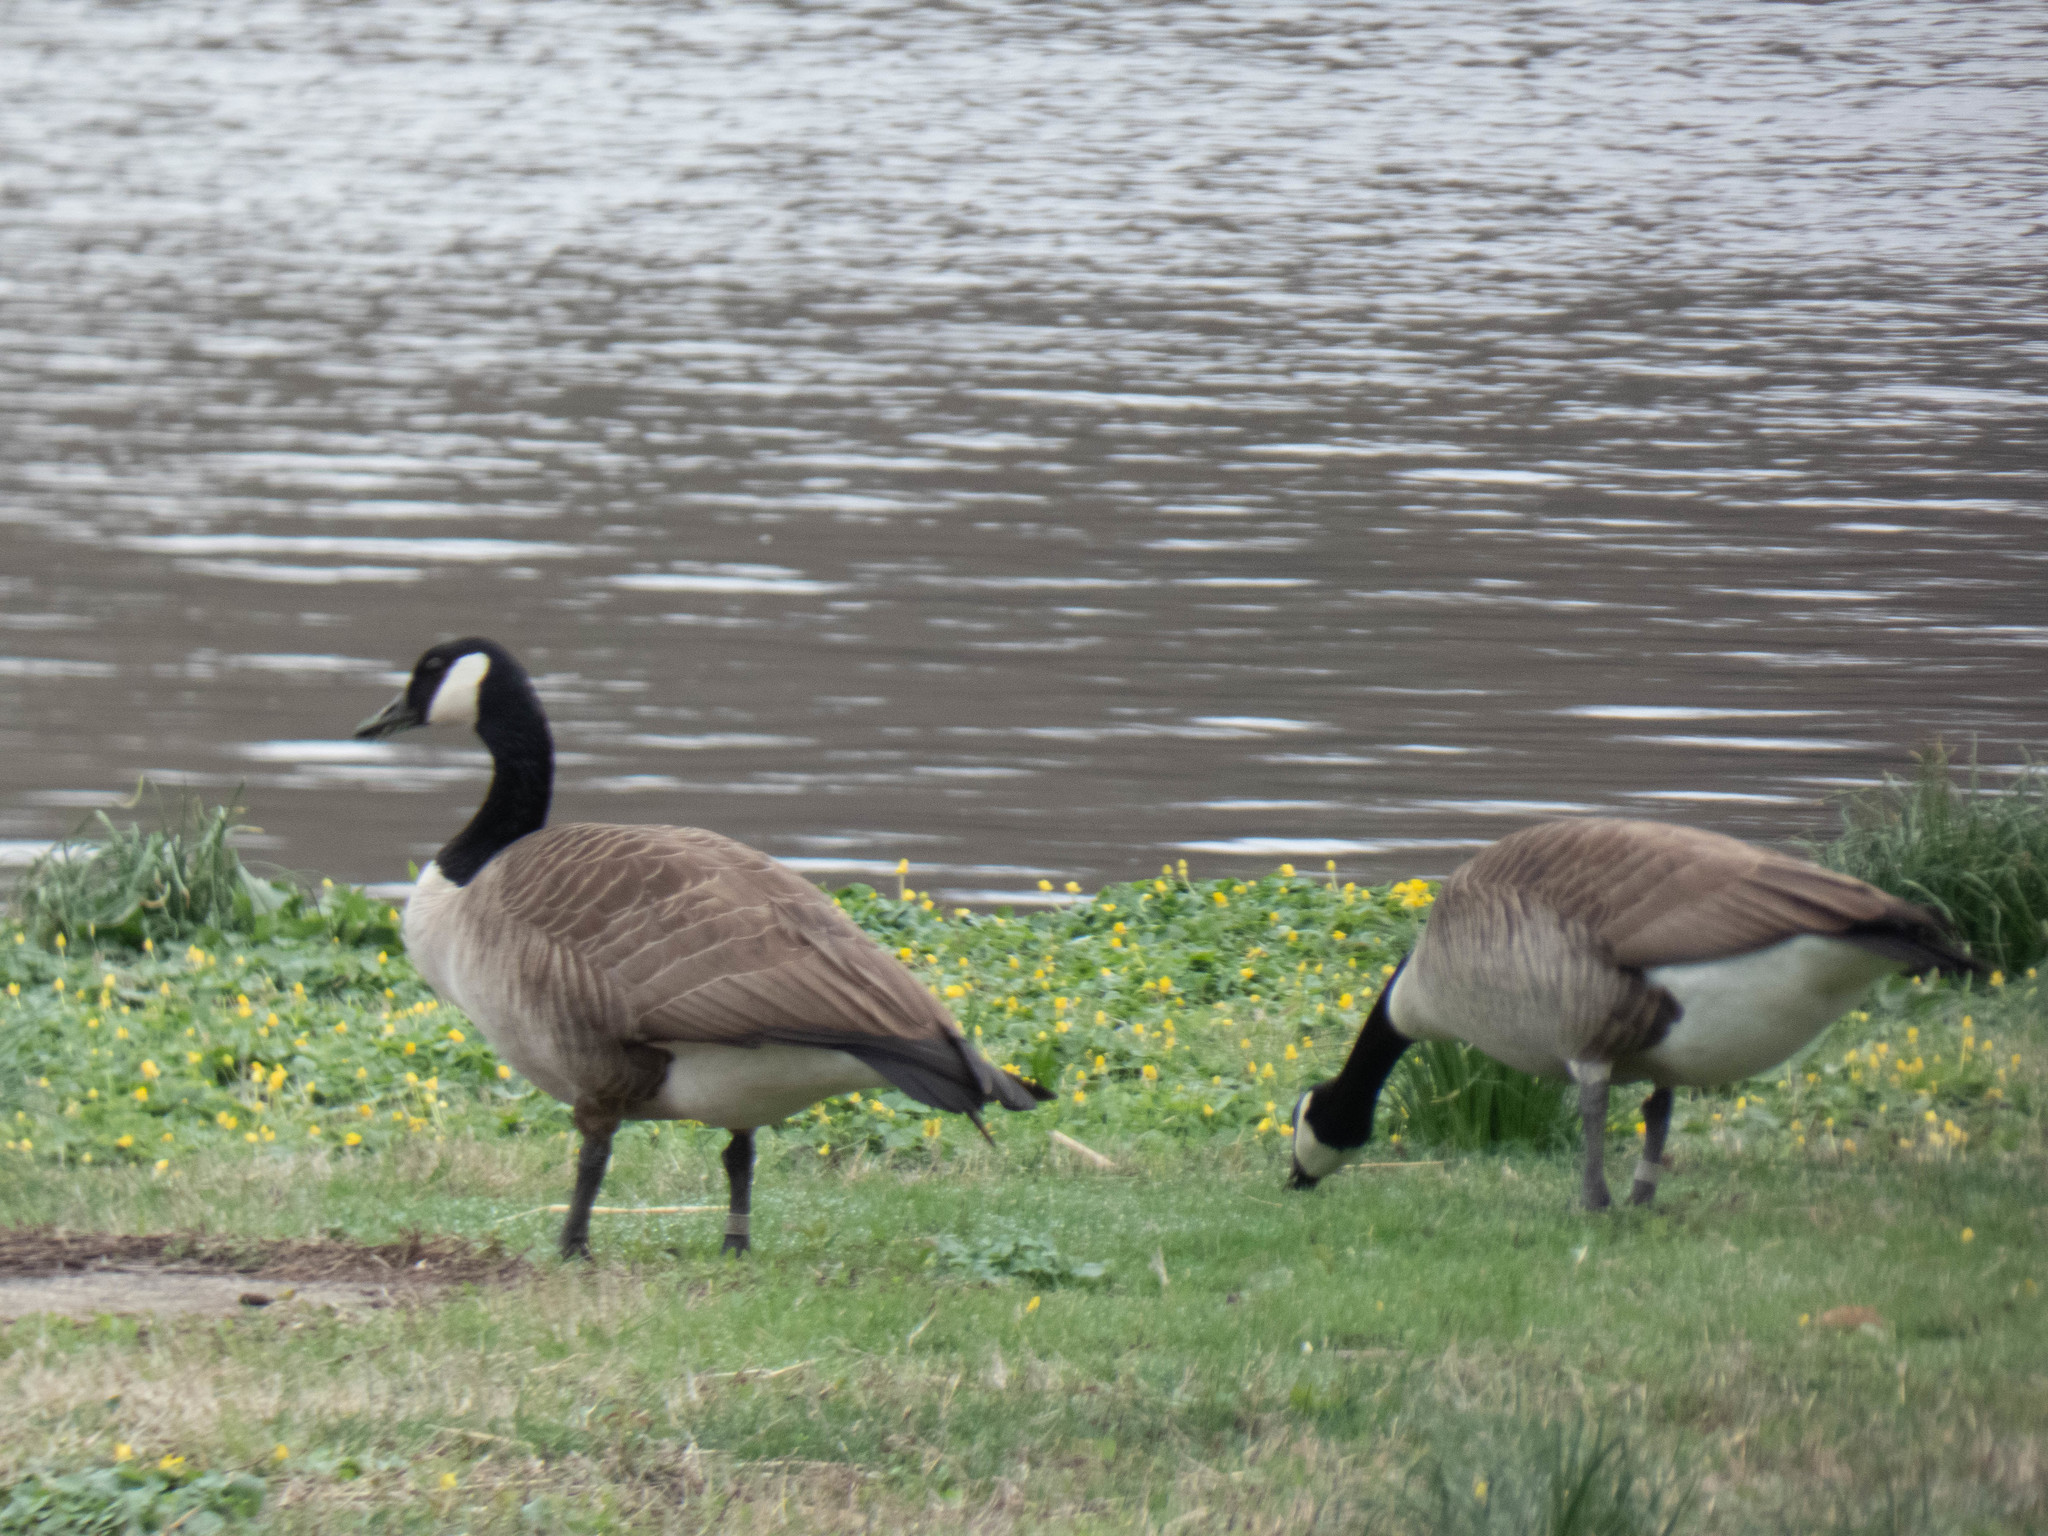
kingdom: Animalia
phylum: Chordata
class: Aves
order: Anseriformes
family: Anatidae
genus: Branta
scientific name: Branta canadensis
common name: Canada goose
